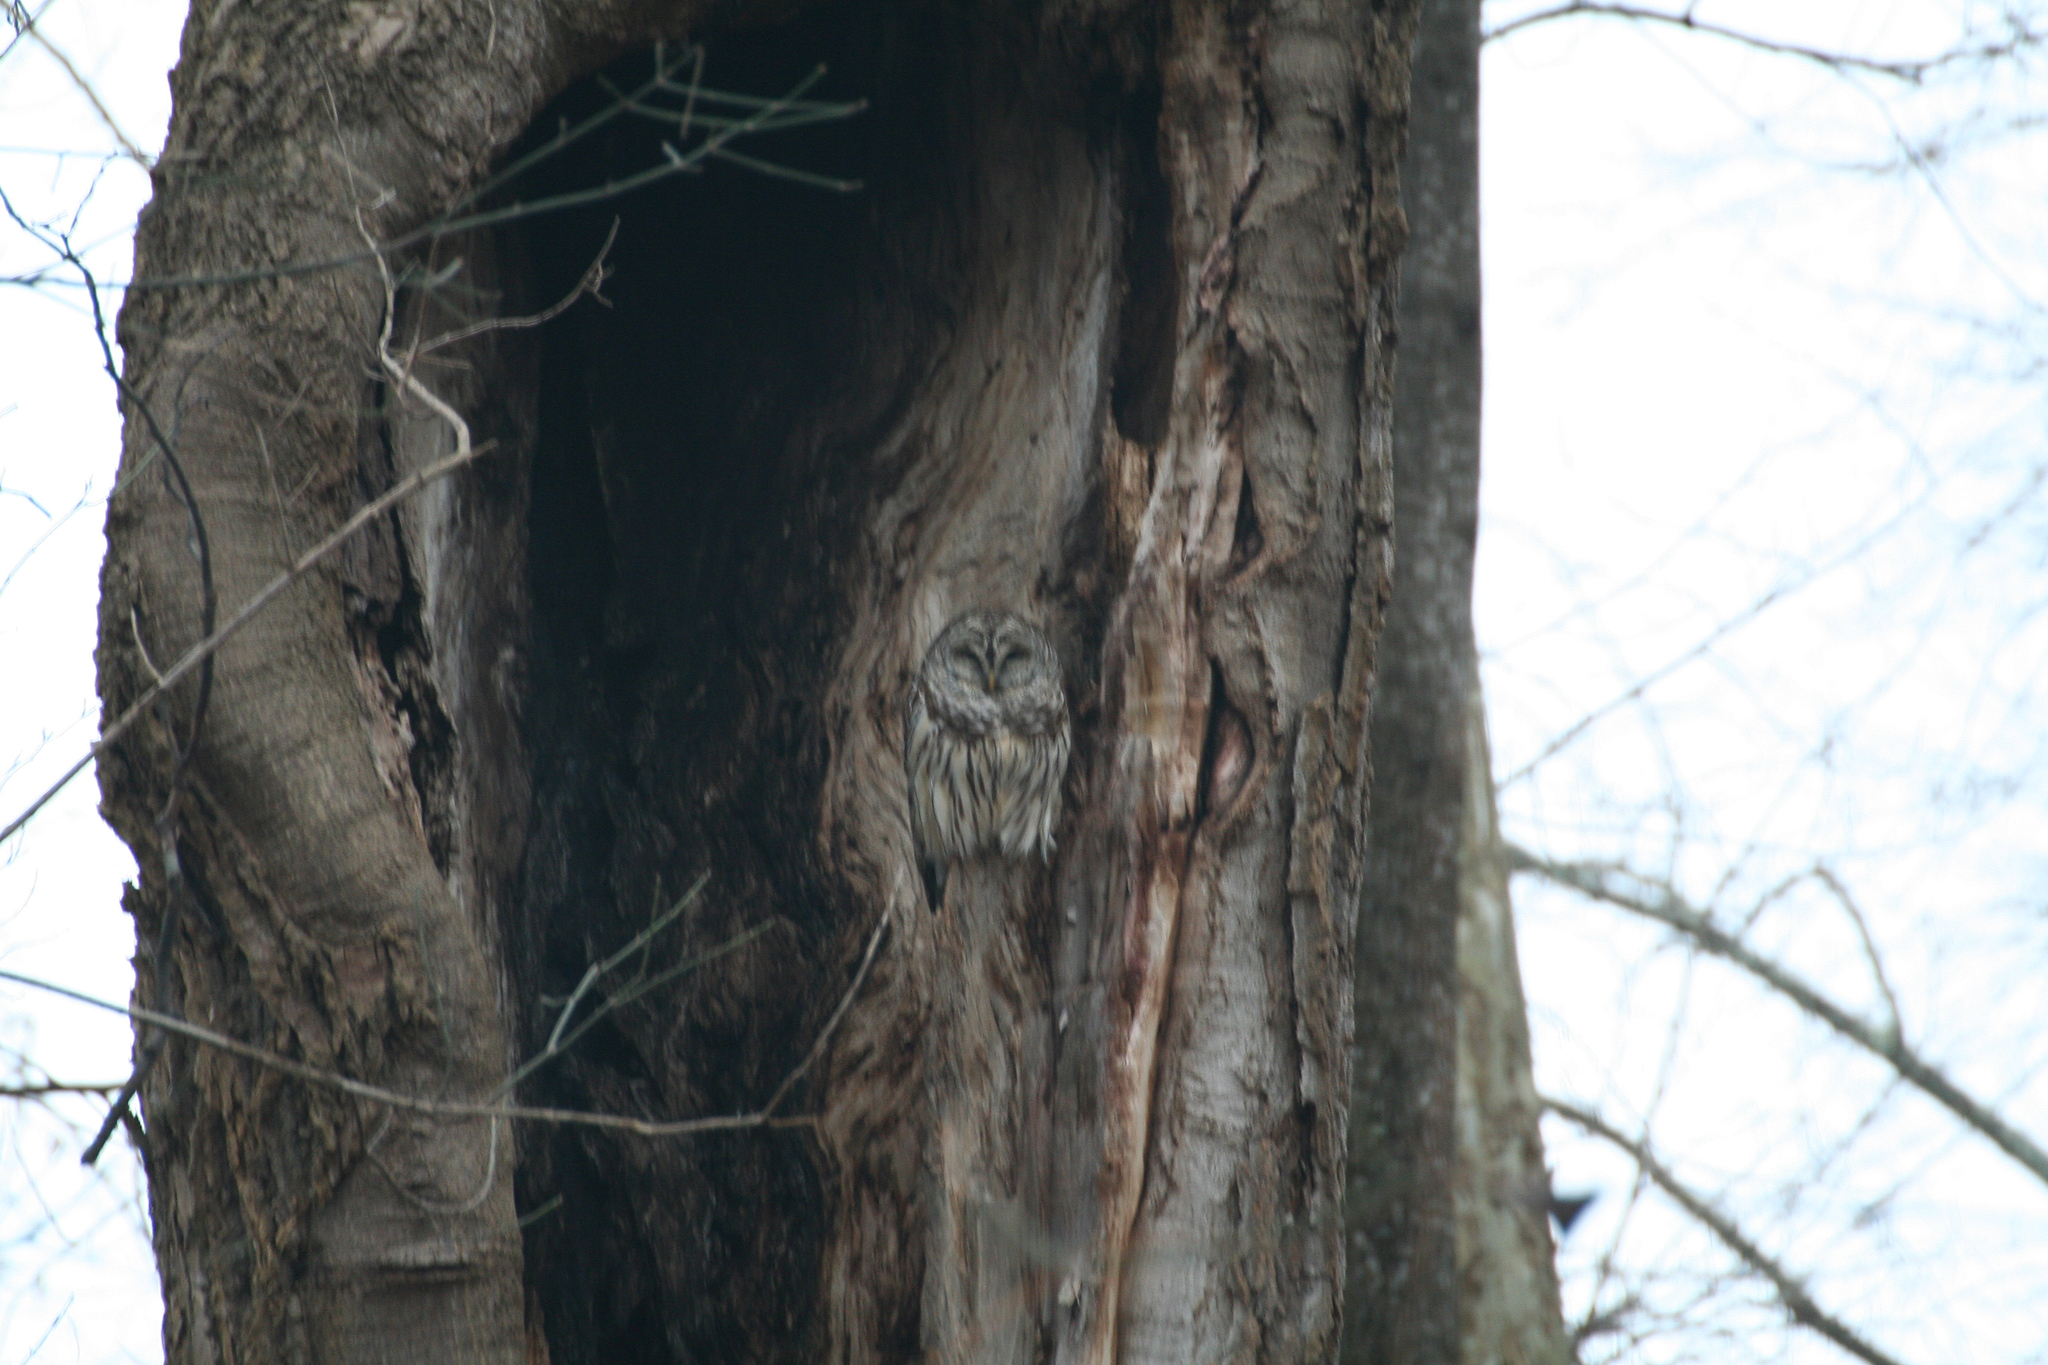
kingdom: Animalia
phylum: Chordata
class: Aves
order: Strigiformes
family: Strigidae
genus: Strix
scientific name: Strix varia
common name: Barred owl
